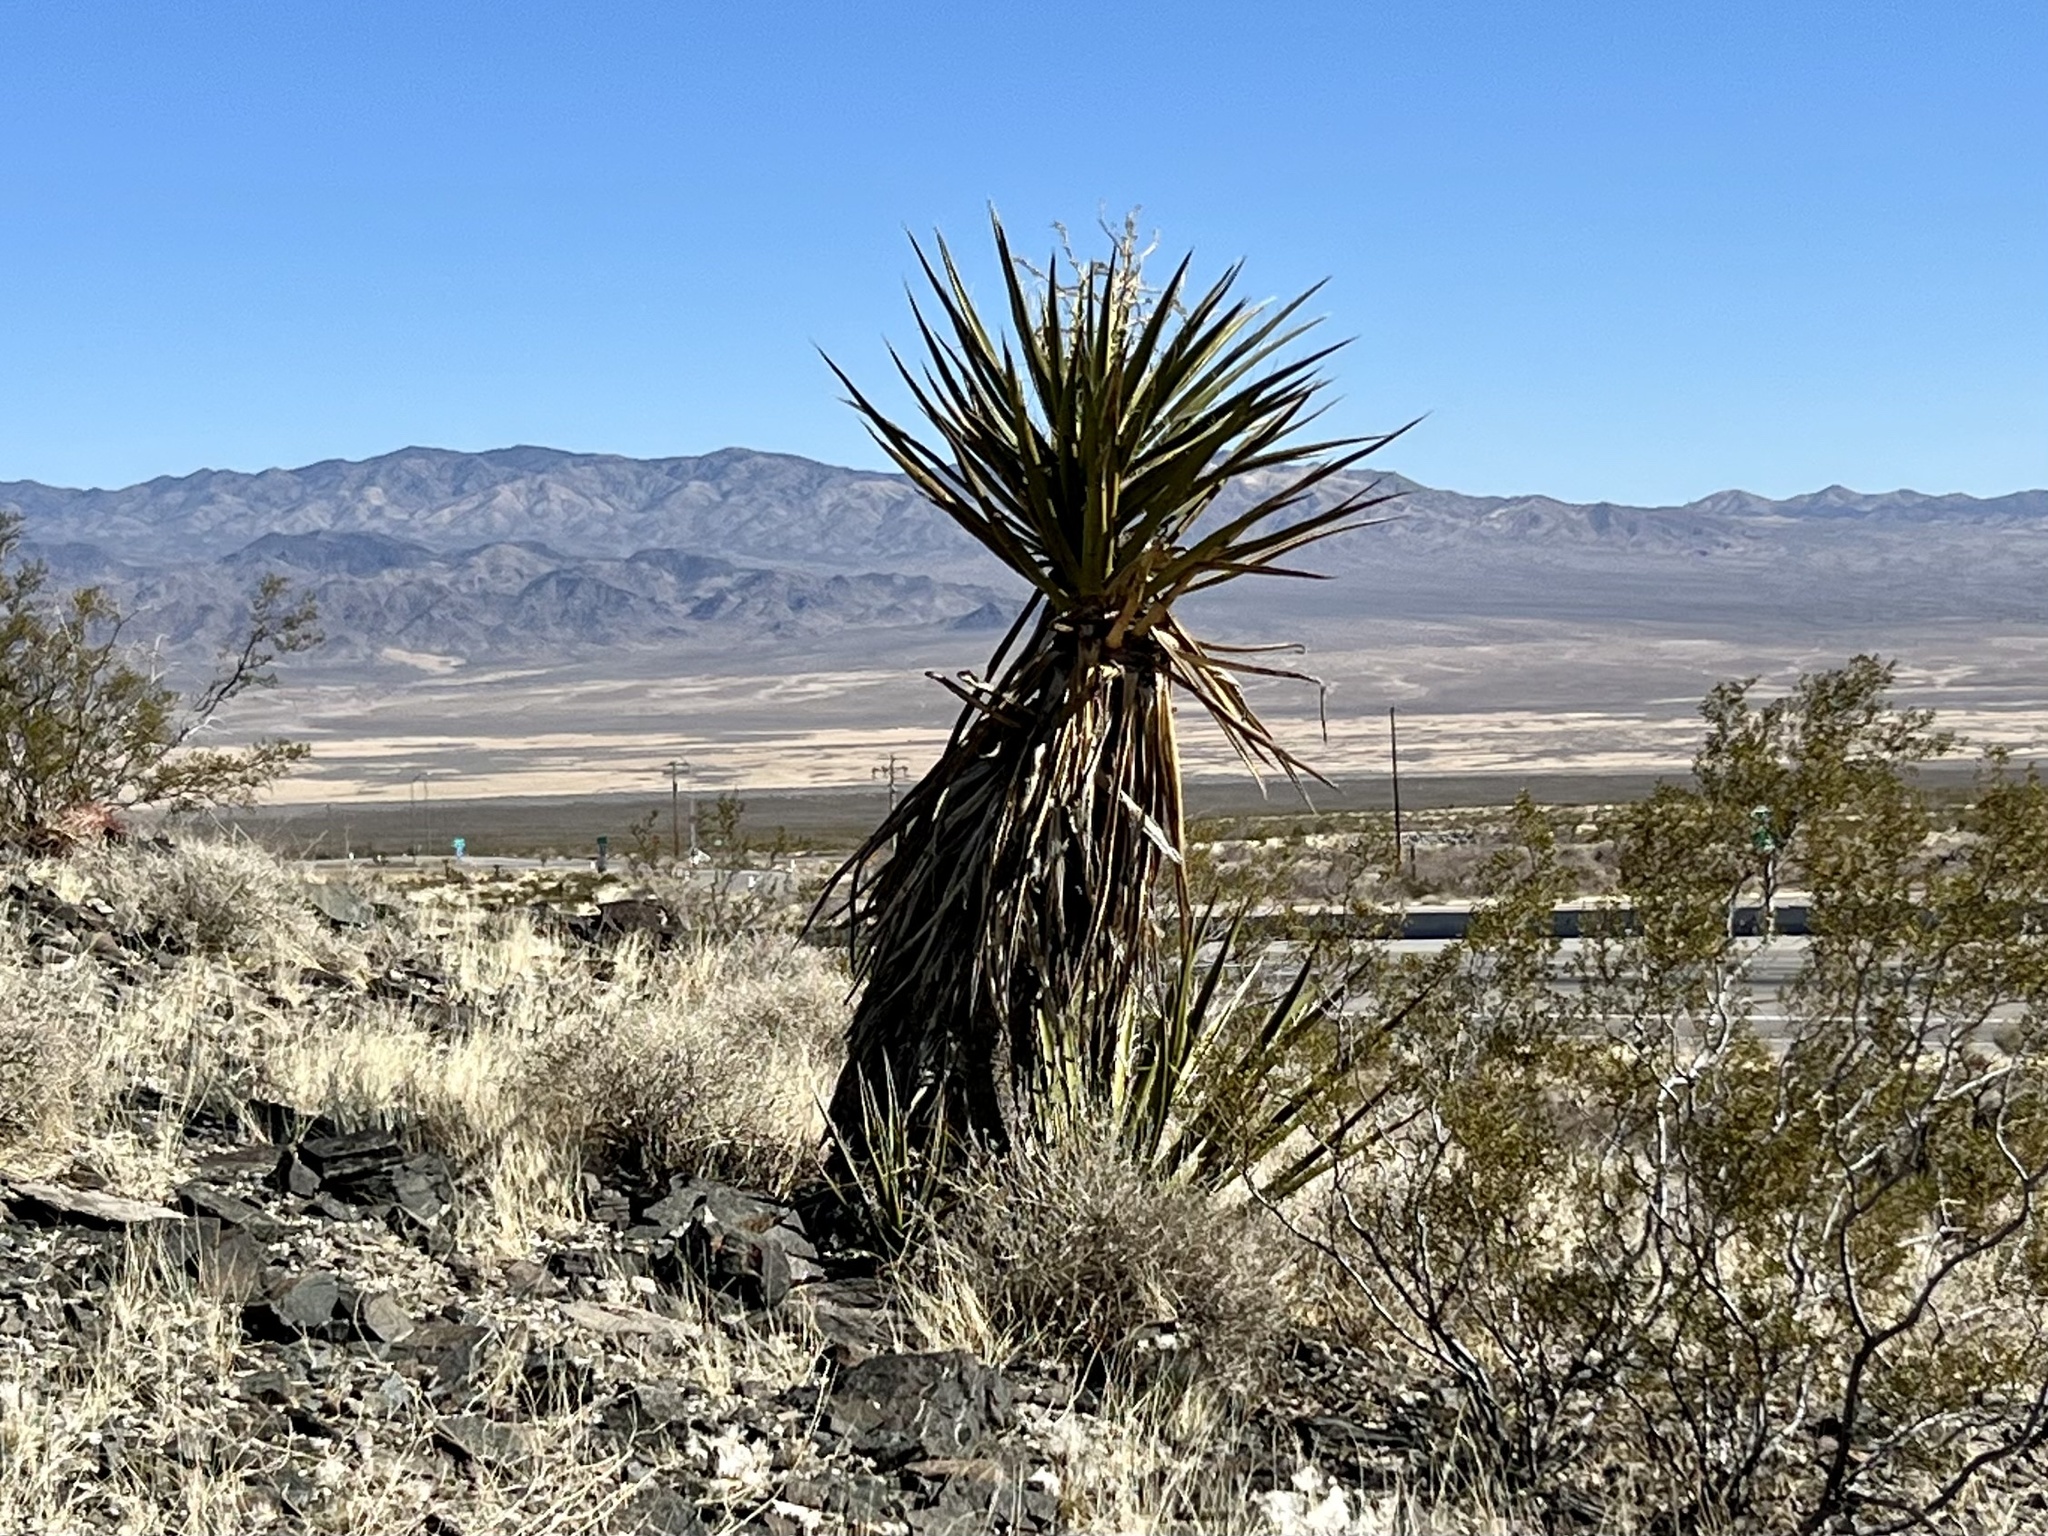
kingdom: Plantae
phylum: Tracheophyta
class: Liliopsida
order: Asparagales
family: Asparagaceae
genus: Yucca
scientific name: Yucca schidigera
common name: Mojave yucca
